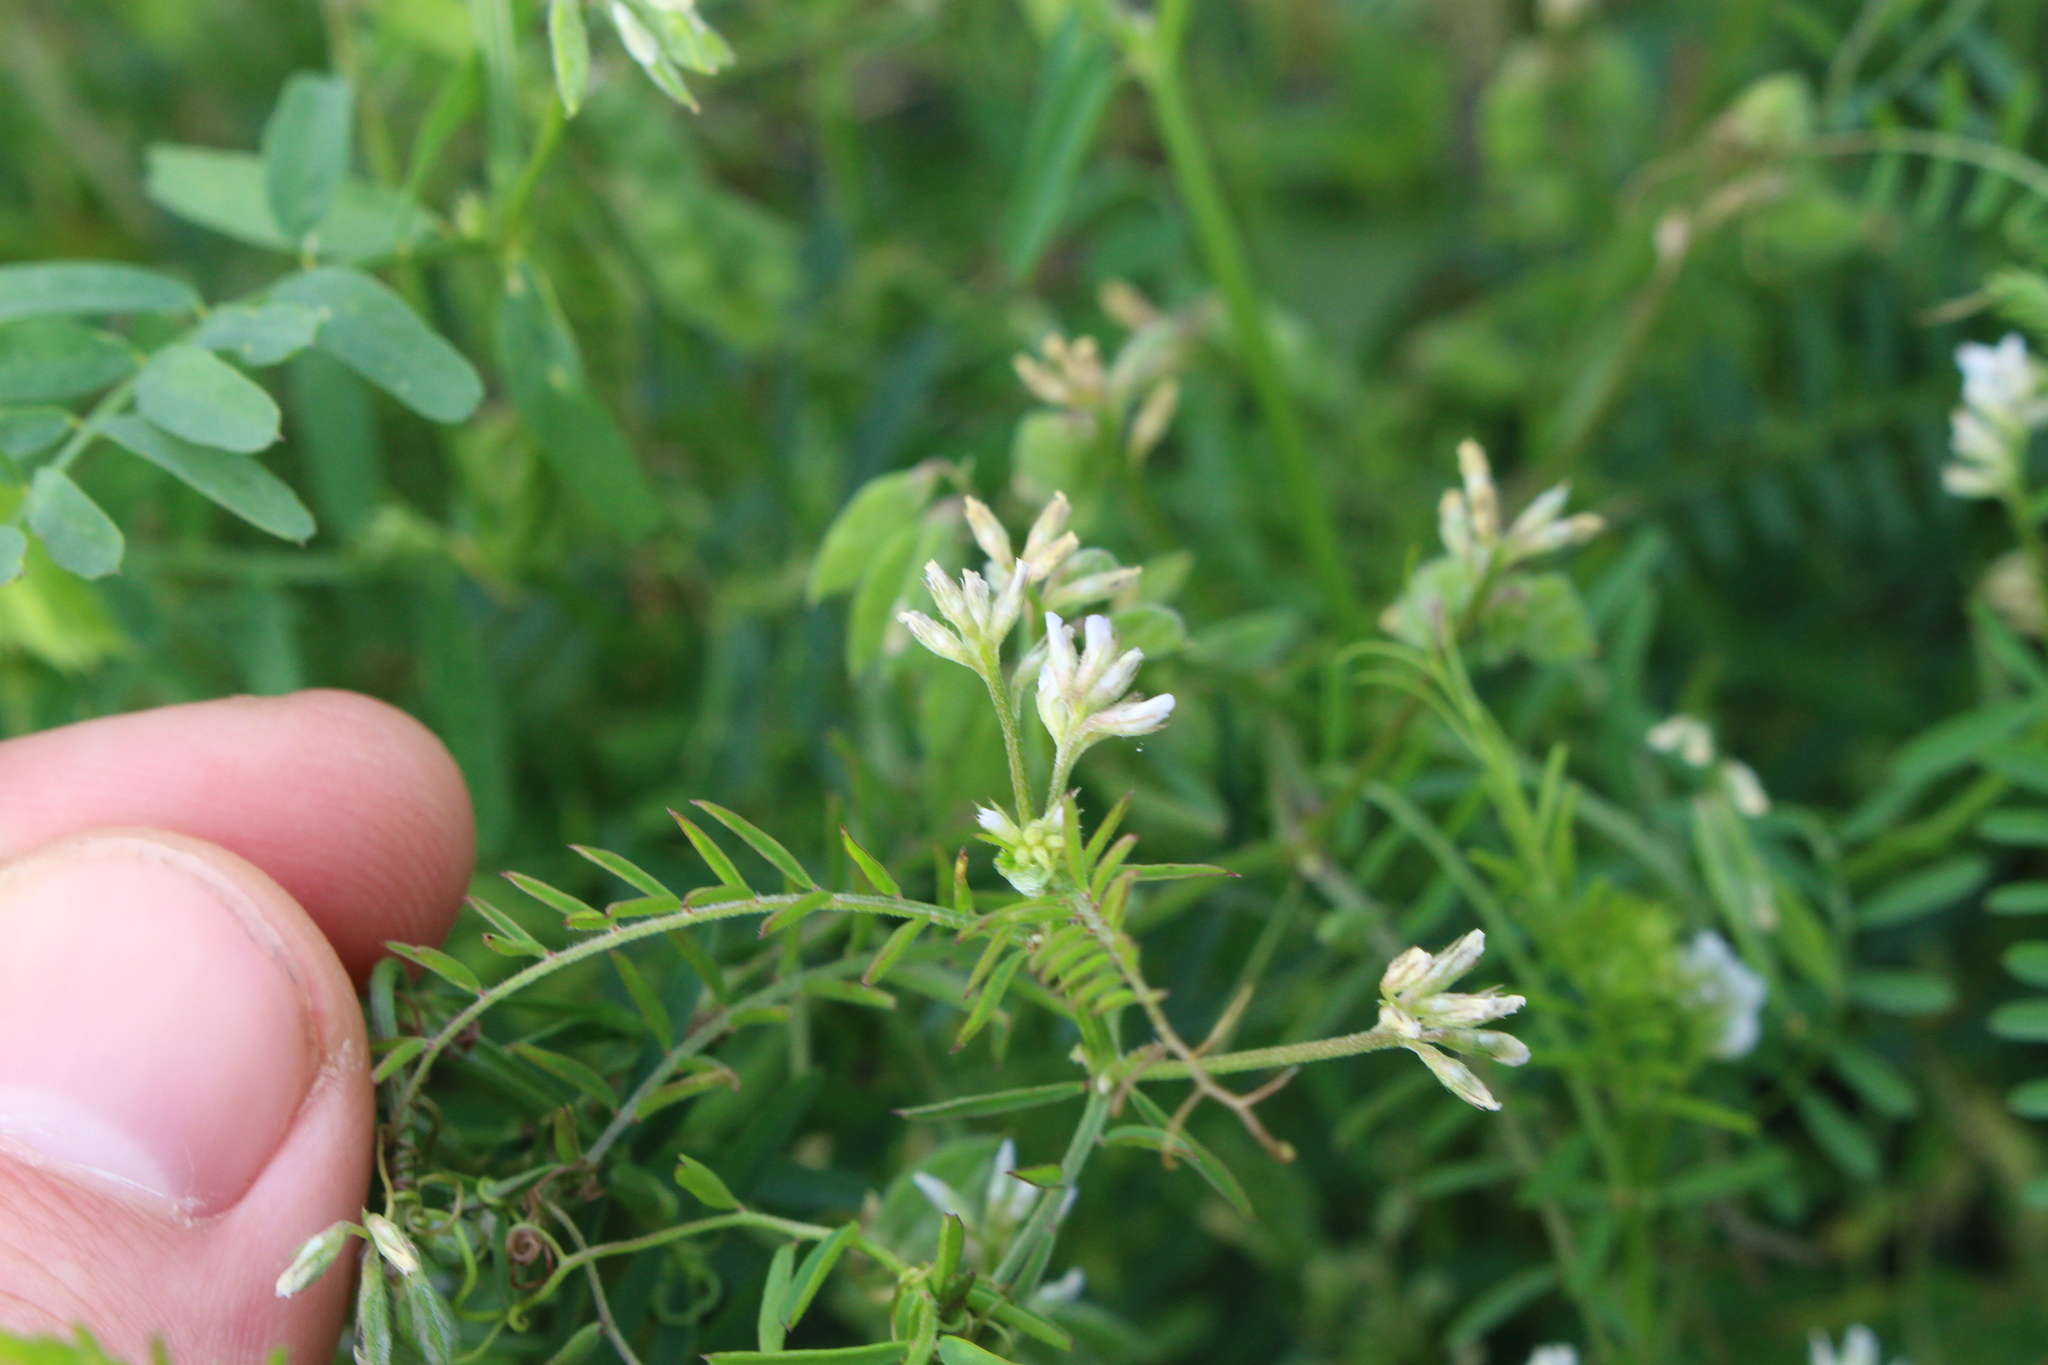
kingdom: Plantae
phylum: Tracheophyta
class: Magnoliopsida
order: Fabales
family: Fabaceae
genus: Vicia
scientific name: Vicia hirsuta
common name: Tiny vetch
